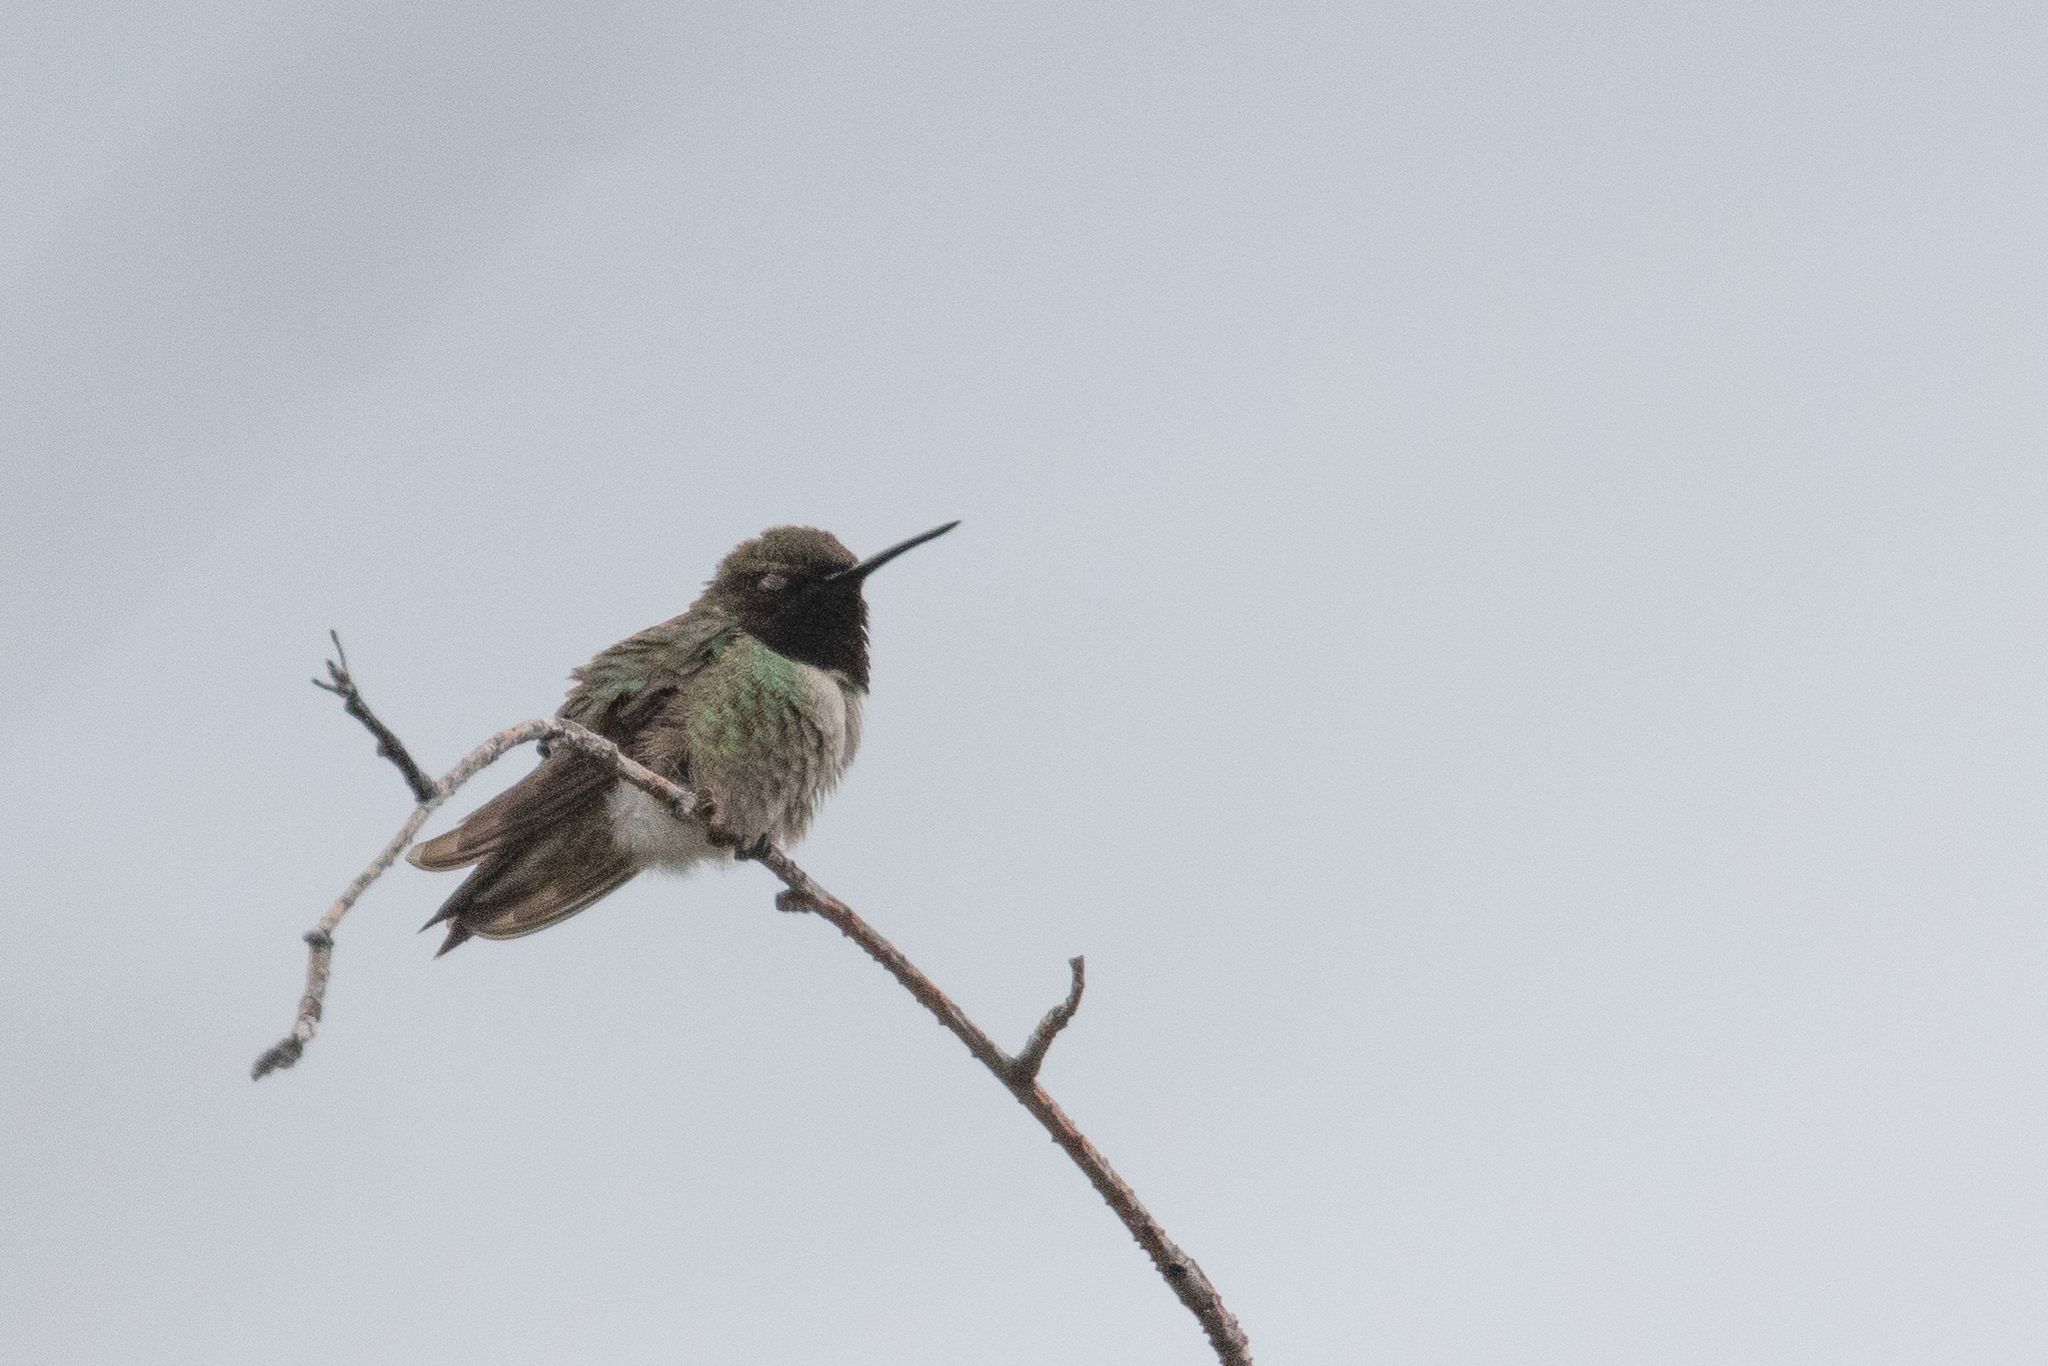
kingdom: Animalia
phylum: Chordata
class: Aves
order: Apodiformes
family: Trochilidae
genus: Archilochus
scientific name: Archilochus alexandri
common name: Black-chinned hummingbird
